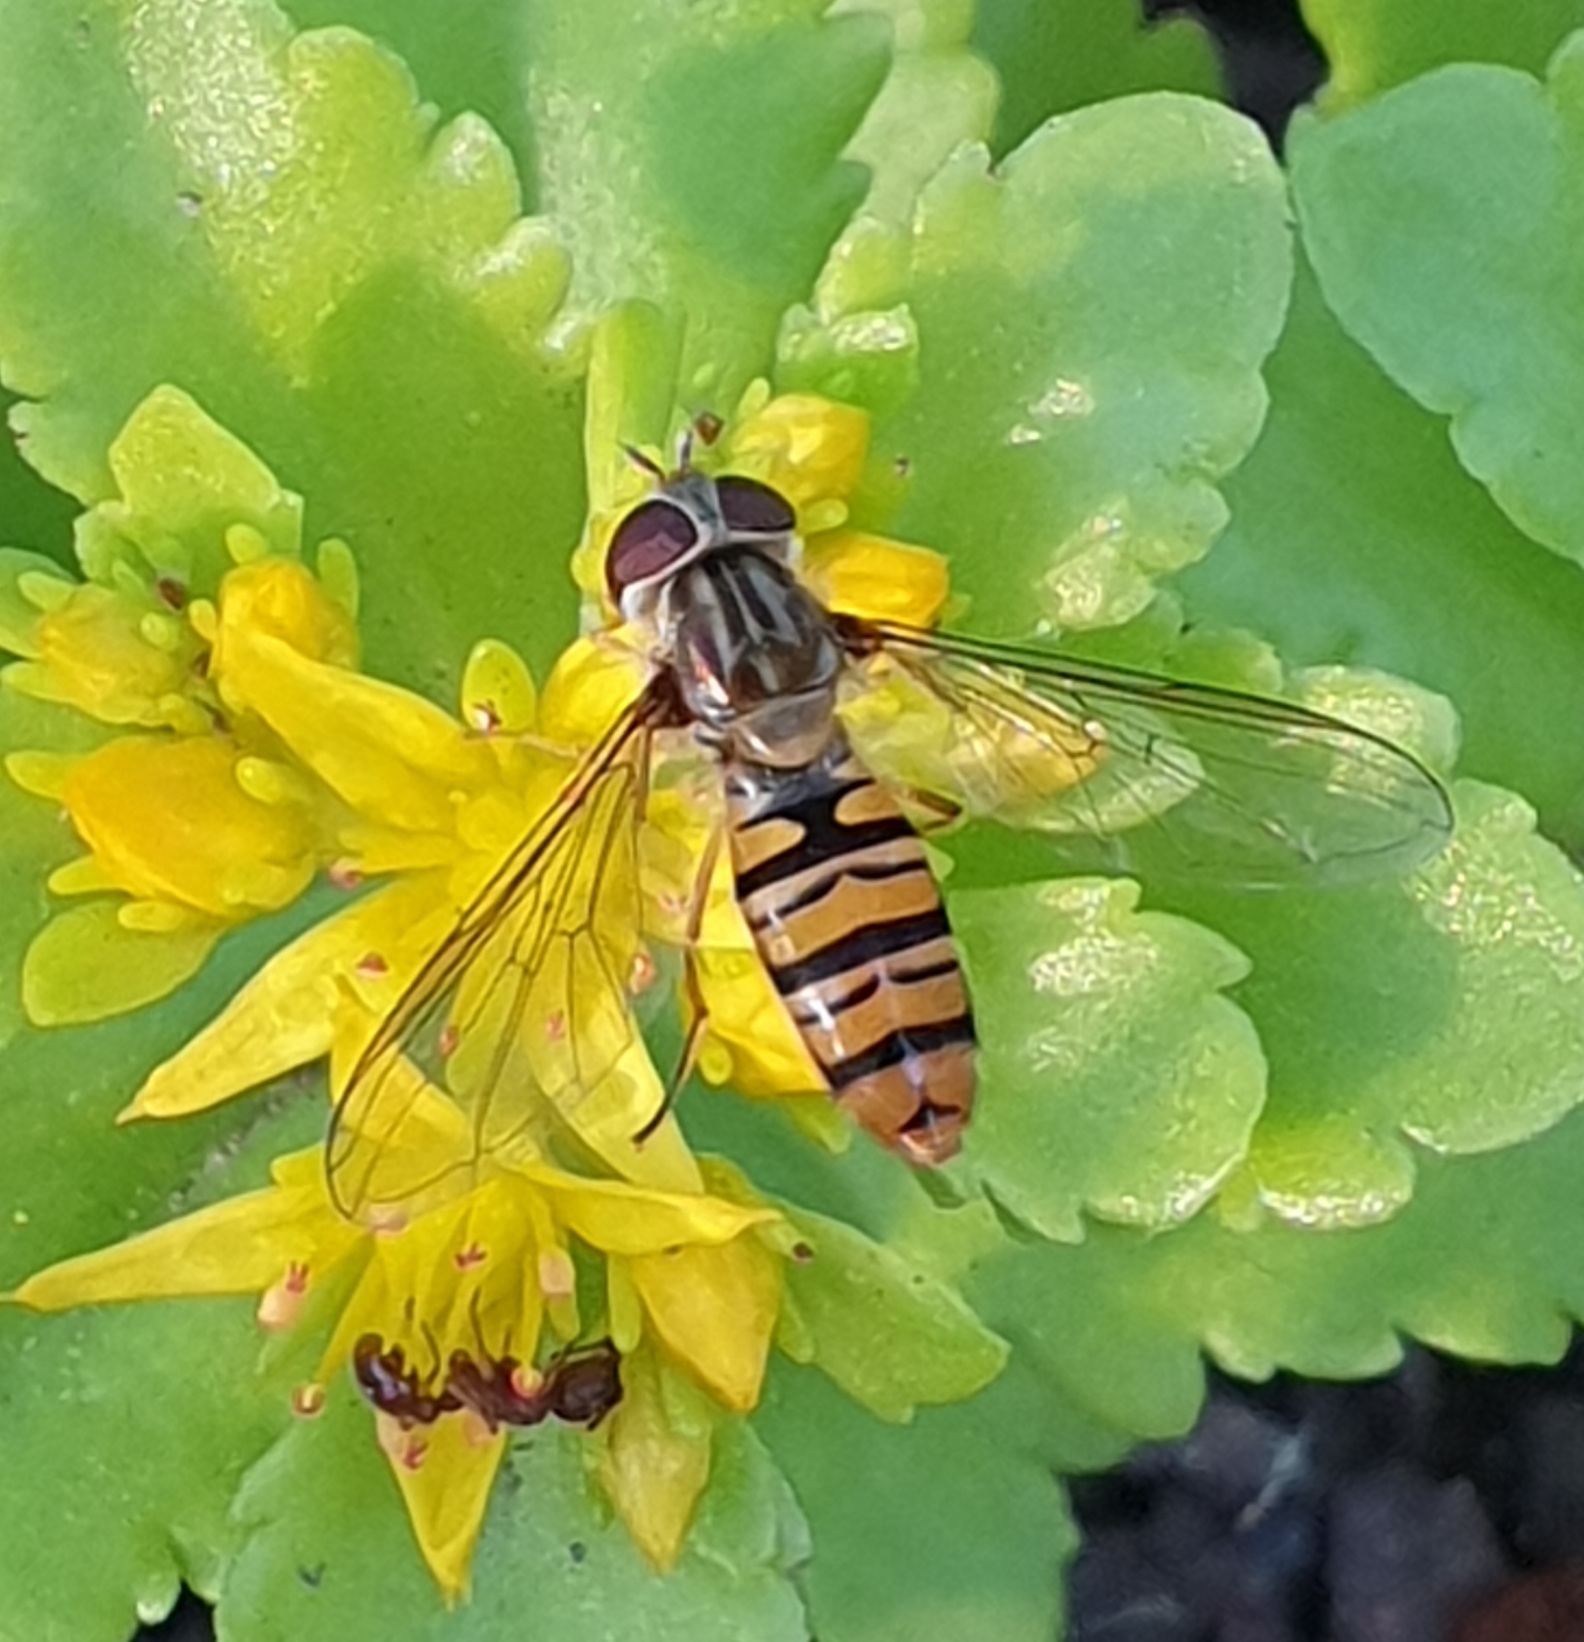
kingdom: Animalia
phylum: Arthropoda
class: Insecta
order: Diptera
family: Syrphidae
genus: Episyrphus
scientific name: Episyrphus balteatus
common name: Marmalade hoverfly
